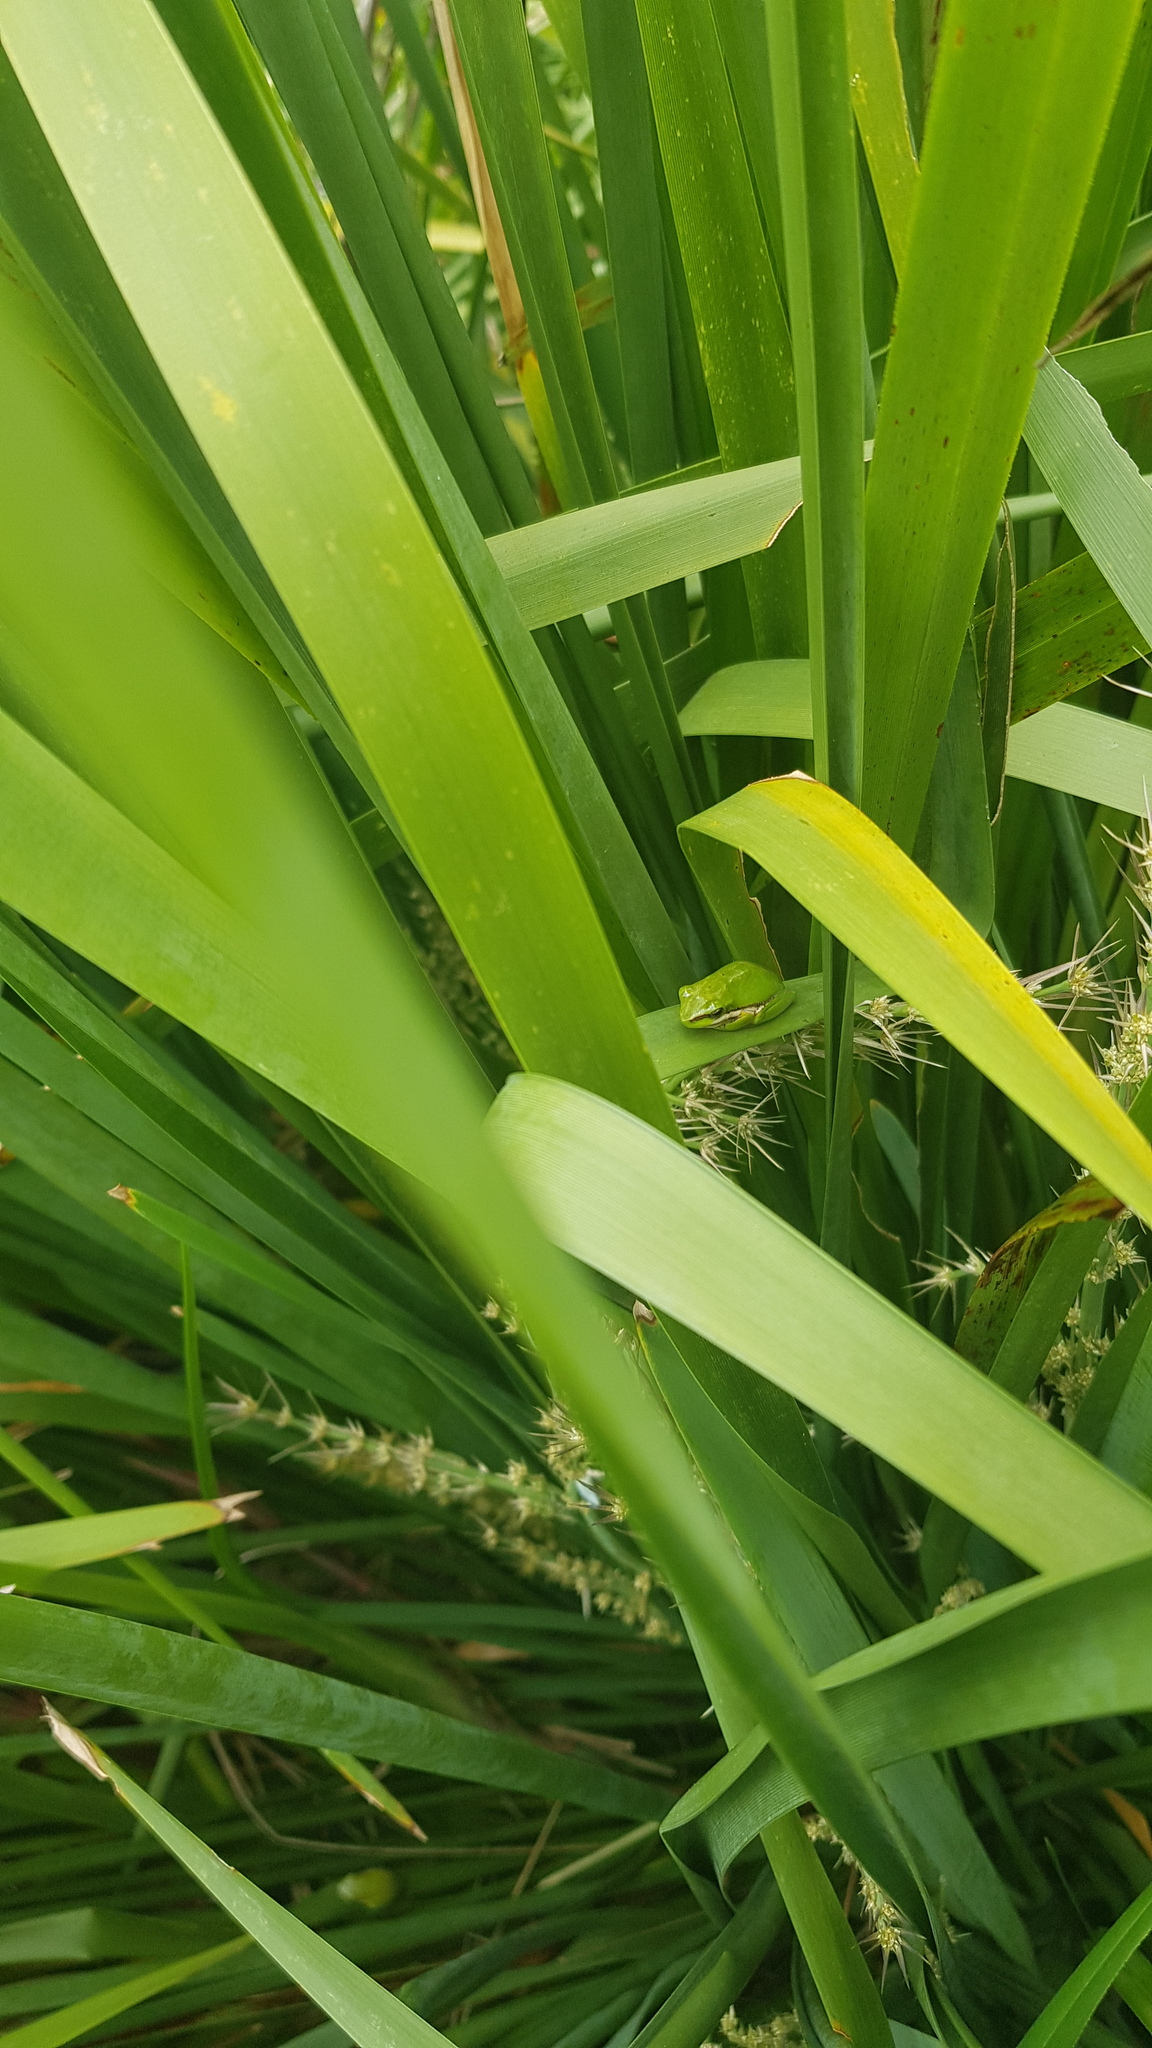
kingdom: Animalia
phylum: Chordata
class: Amphibia
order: Anura
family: Pelodryadidae
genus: Litoria
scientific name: Litoria fallax
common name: Eastern dwarf treefrog
